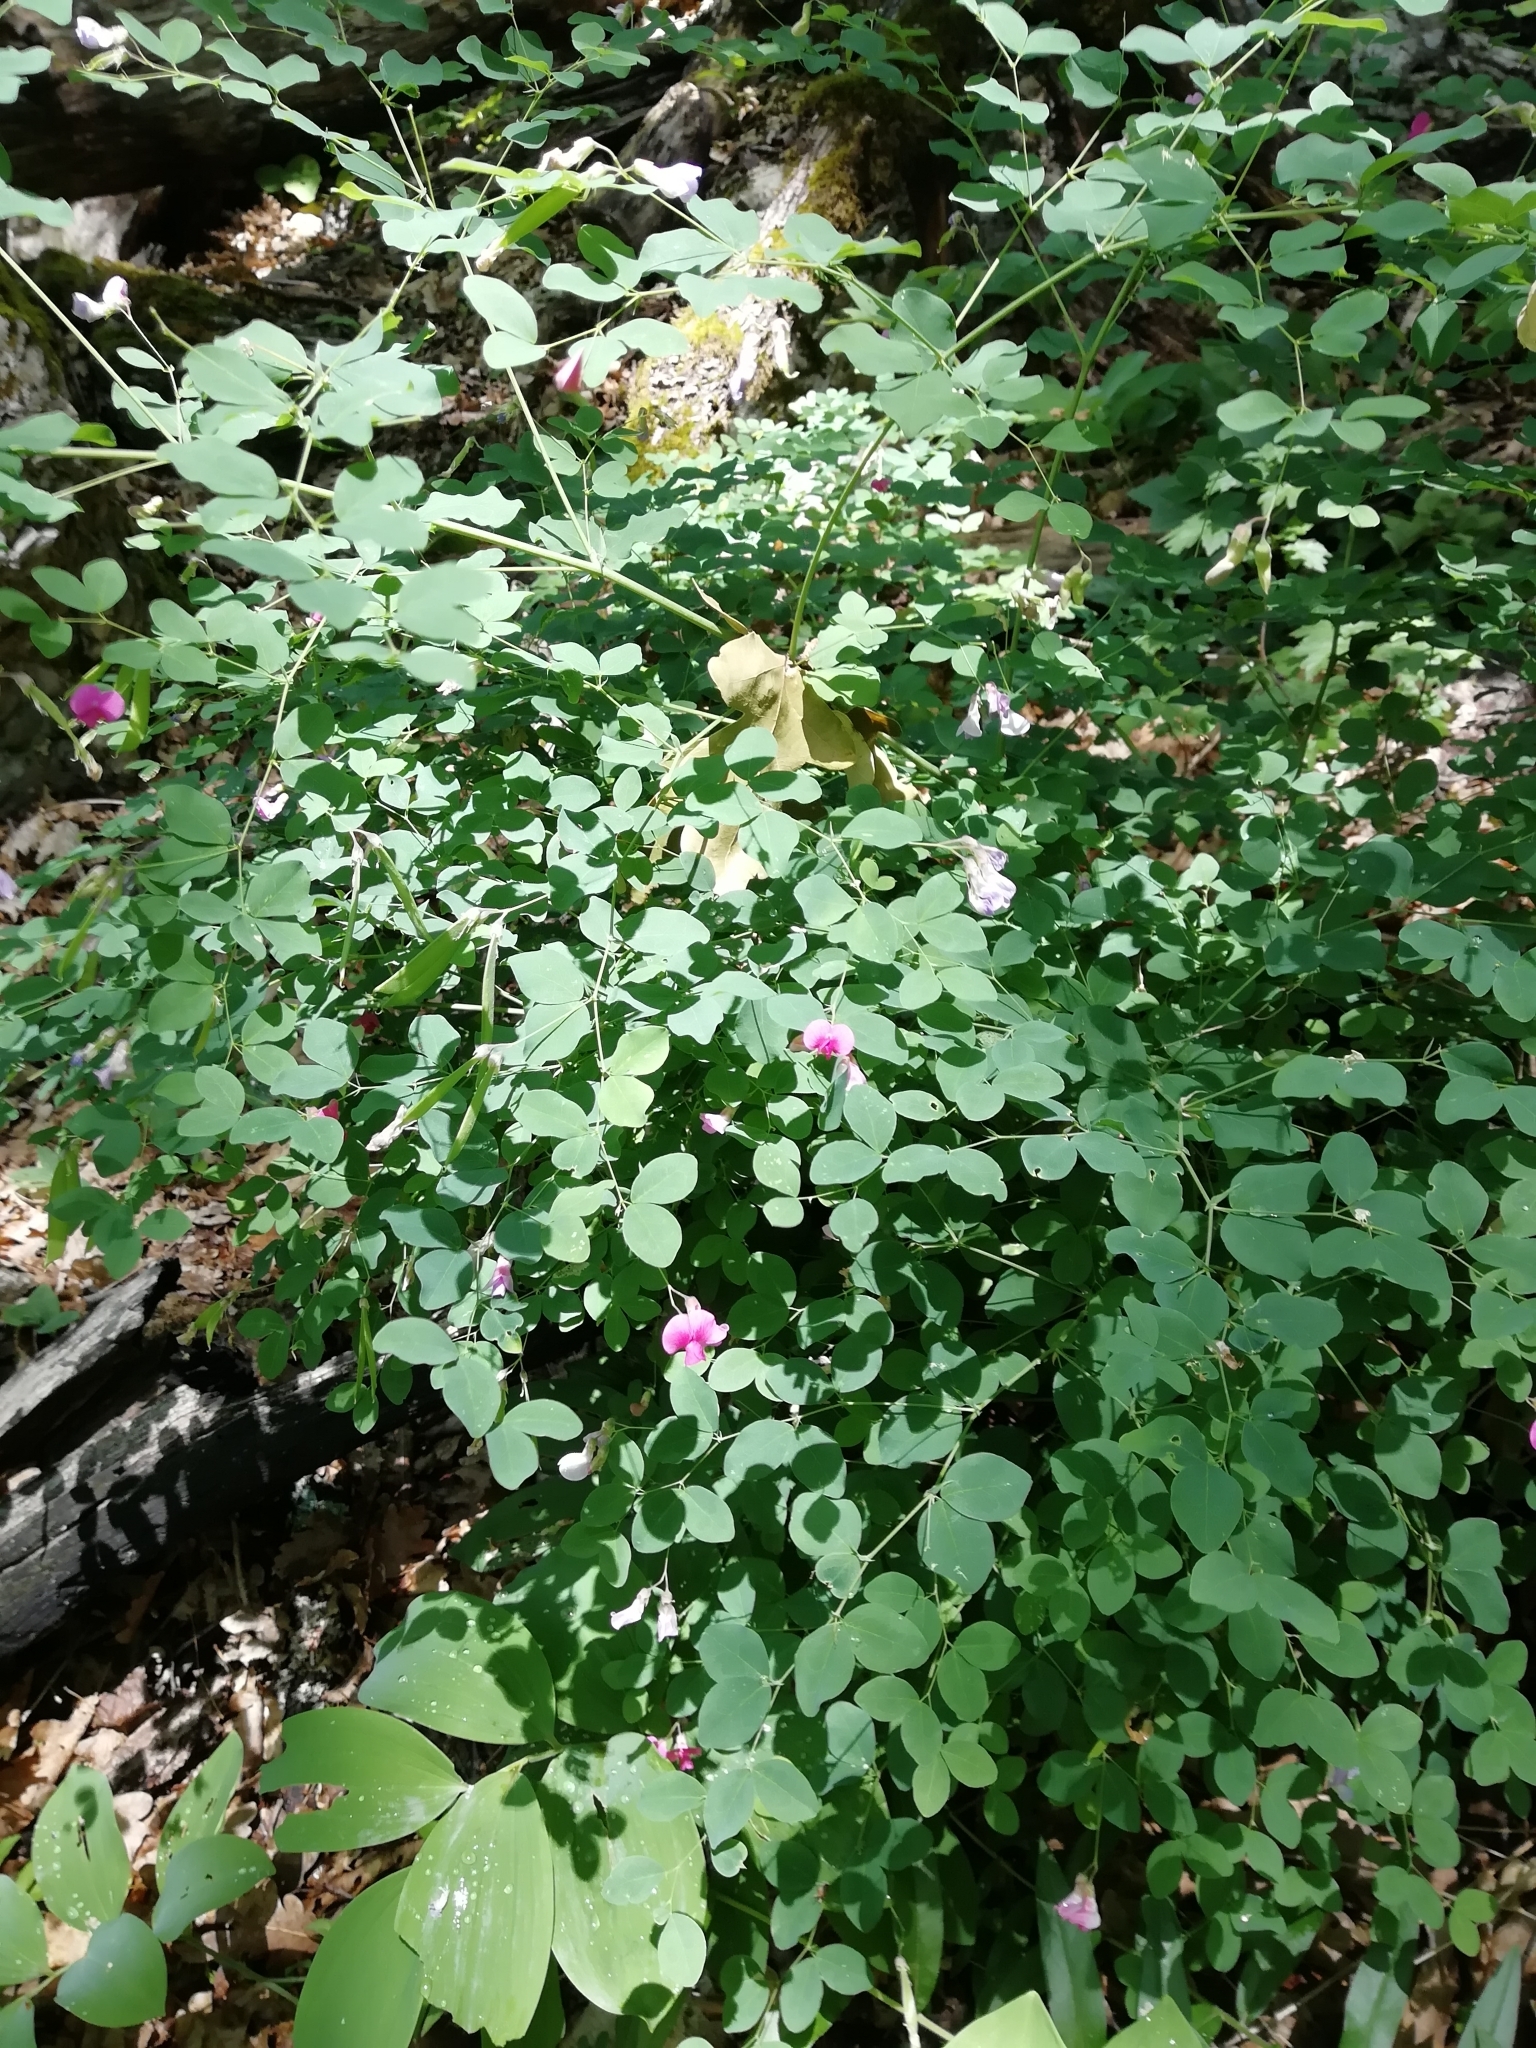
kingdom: Plantae
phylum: Tracheophyta
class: Magnoliopsida
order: Fabales
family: Fabaceae
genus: Lathyrus
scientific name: Lathyrus roseus
